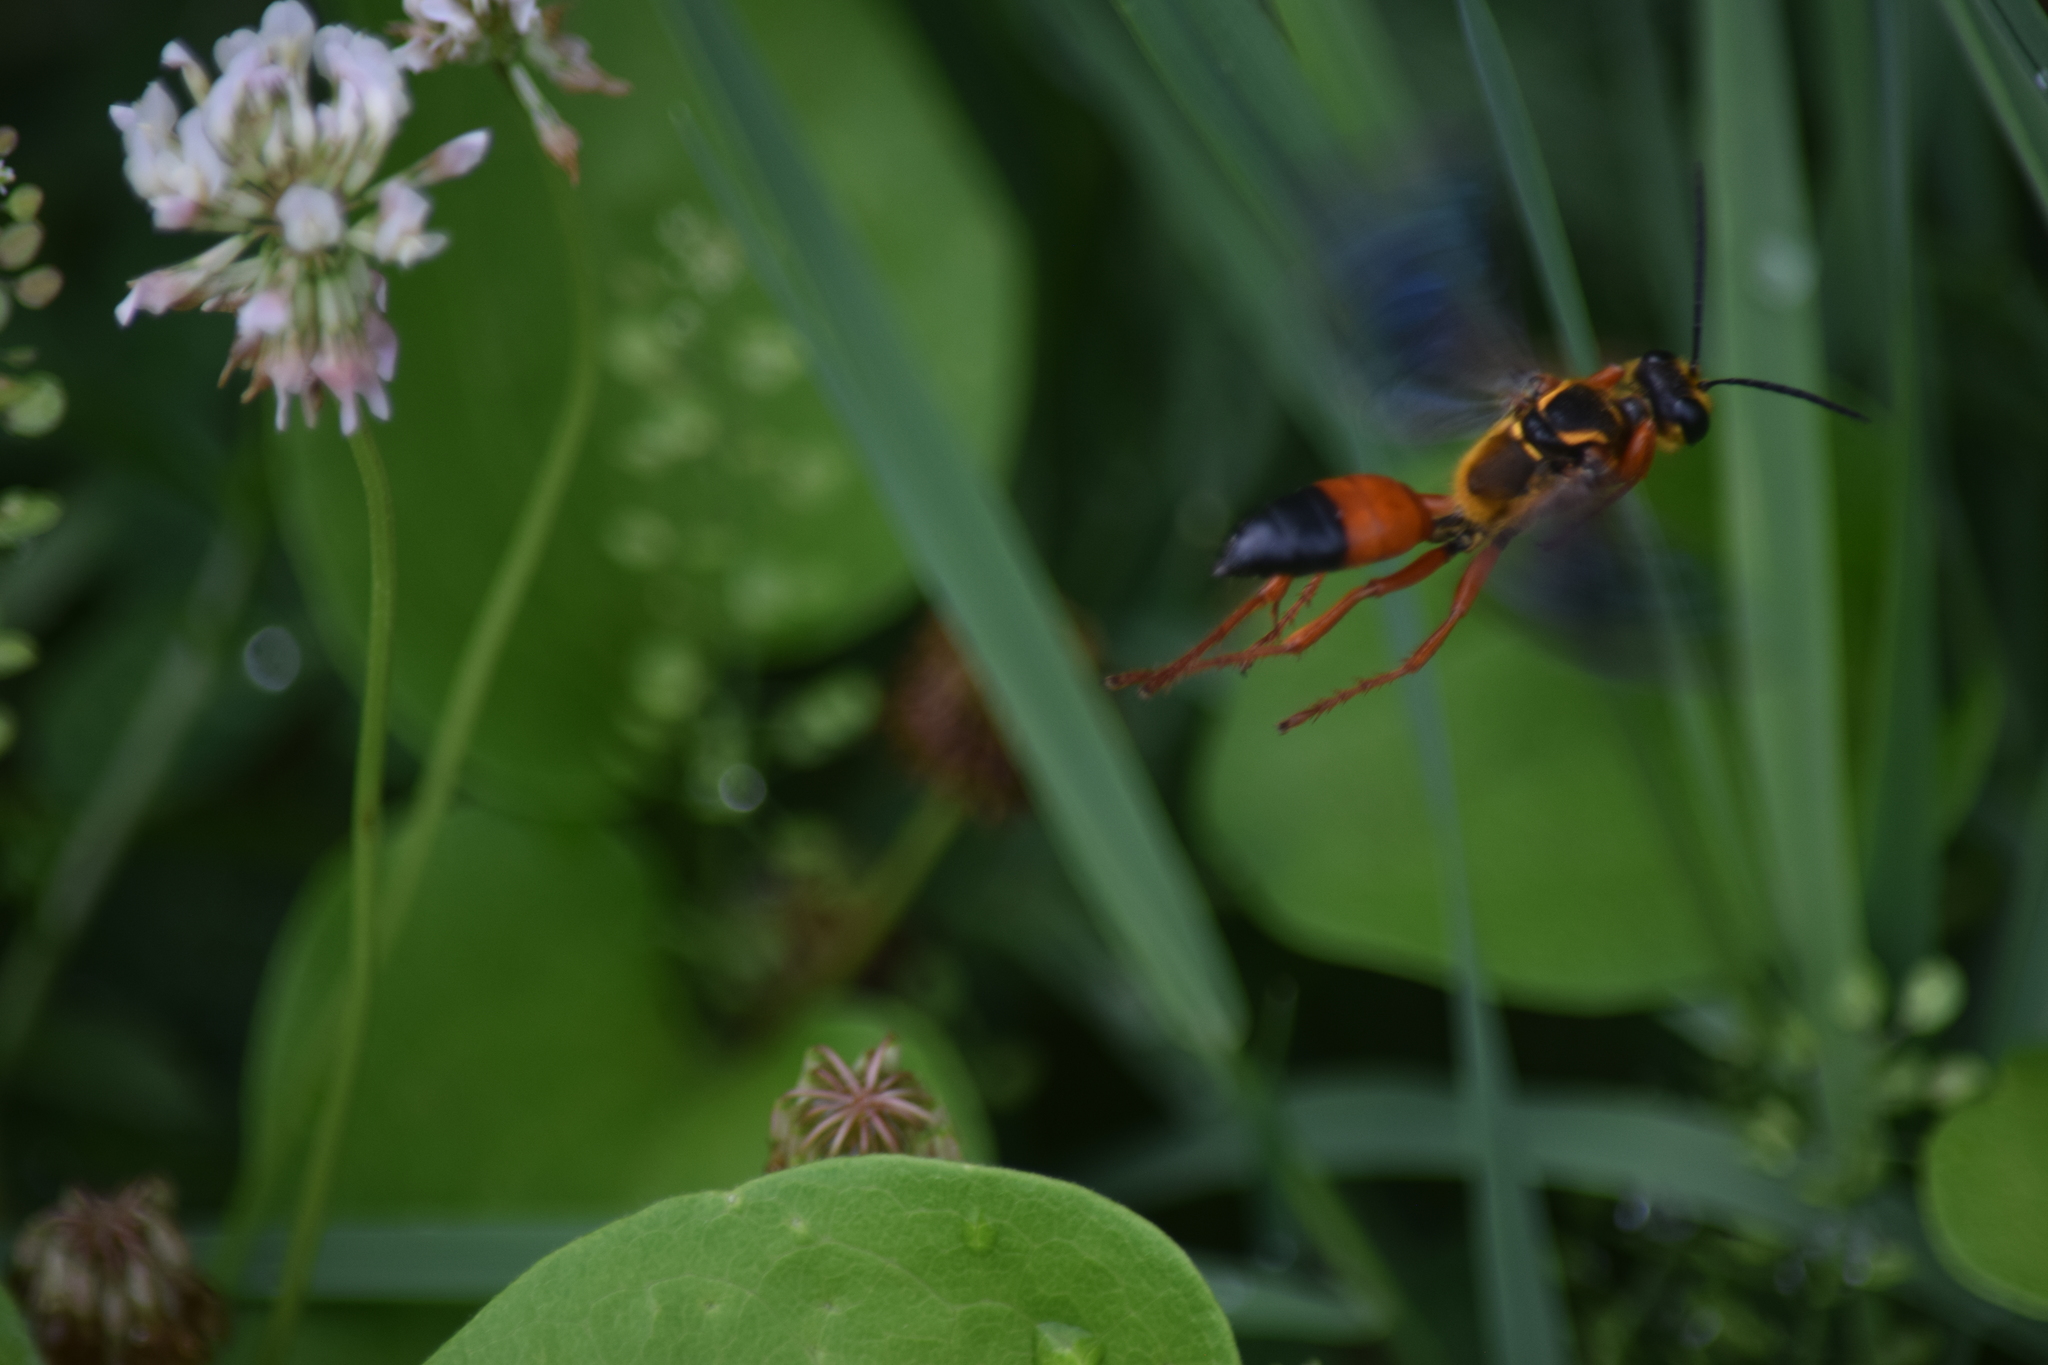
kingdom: Animalia
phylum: Arthropoda
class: Insecta
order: Hymenoptera
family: Sphecidae
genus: Sphex
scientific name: Sphex ichneumoneus
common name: Great golden digger wasp
